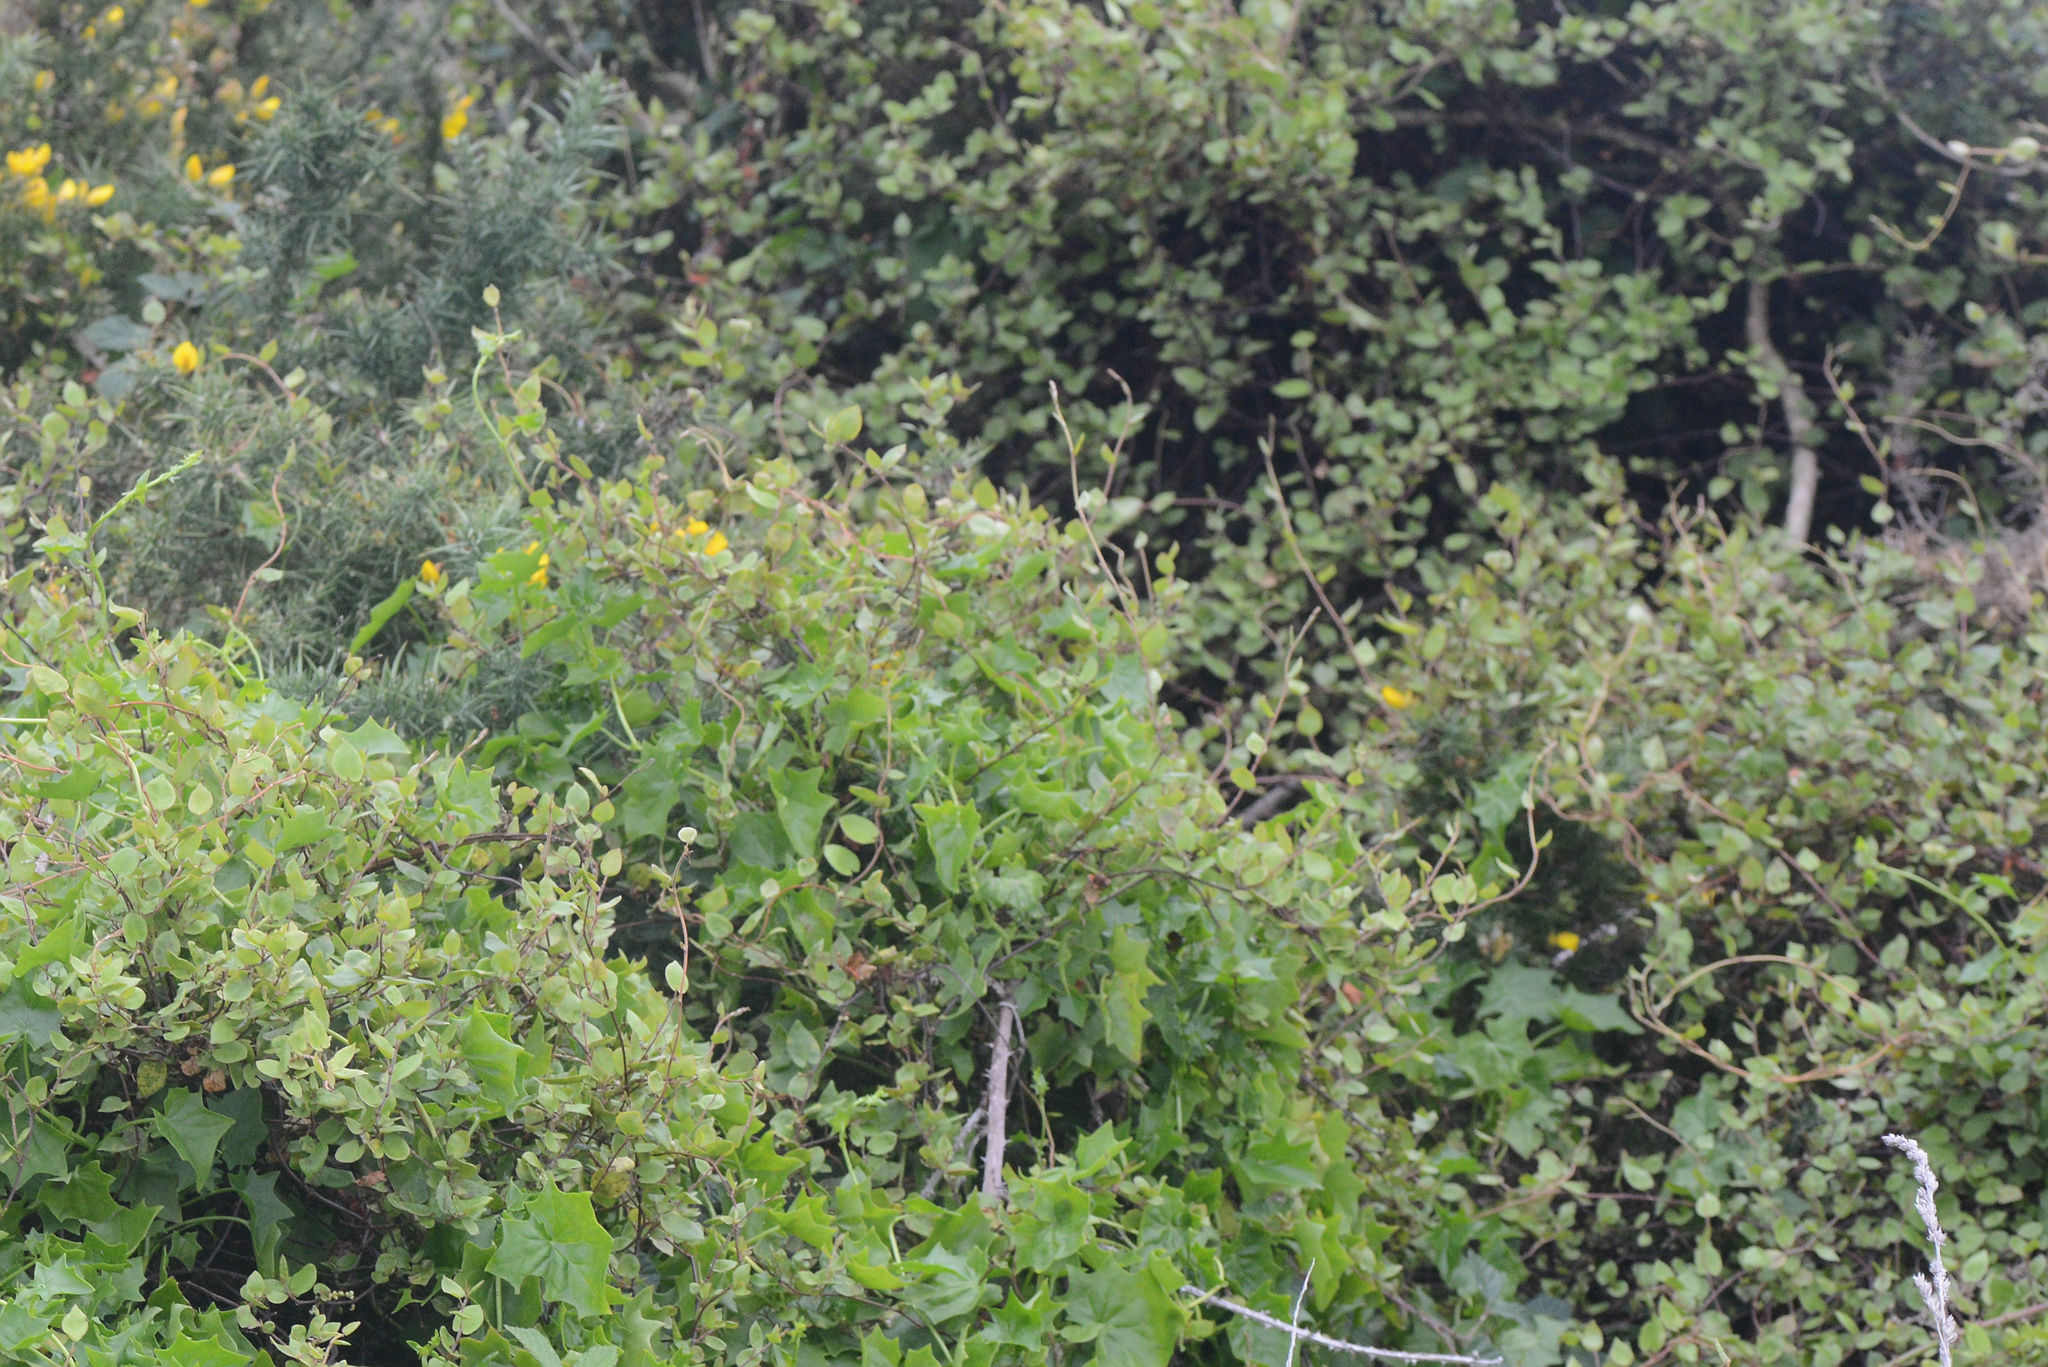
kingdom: Plantae
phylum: Tracheophyta
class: Magnoliopsida
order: Caryophyllales
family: Polygonaceae
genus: Muehlenbeckia
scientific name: Muehlenbeckia australis
